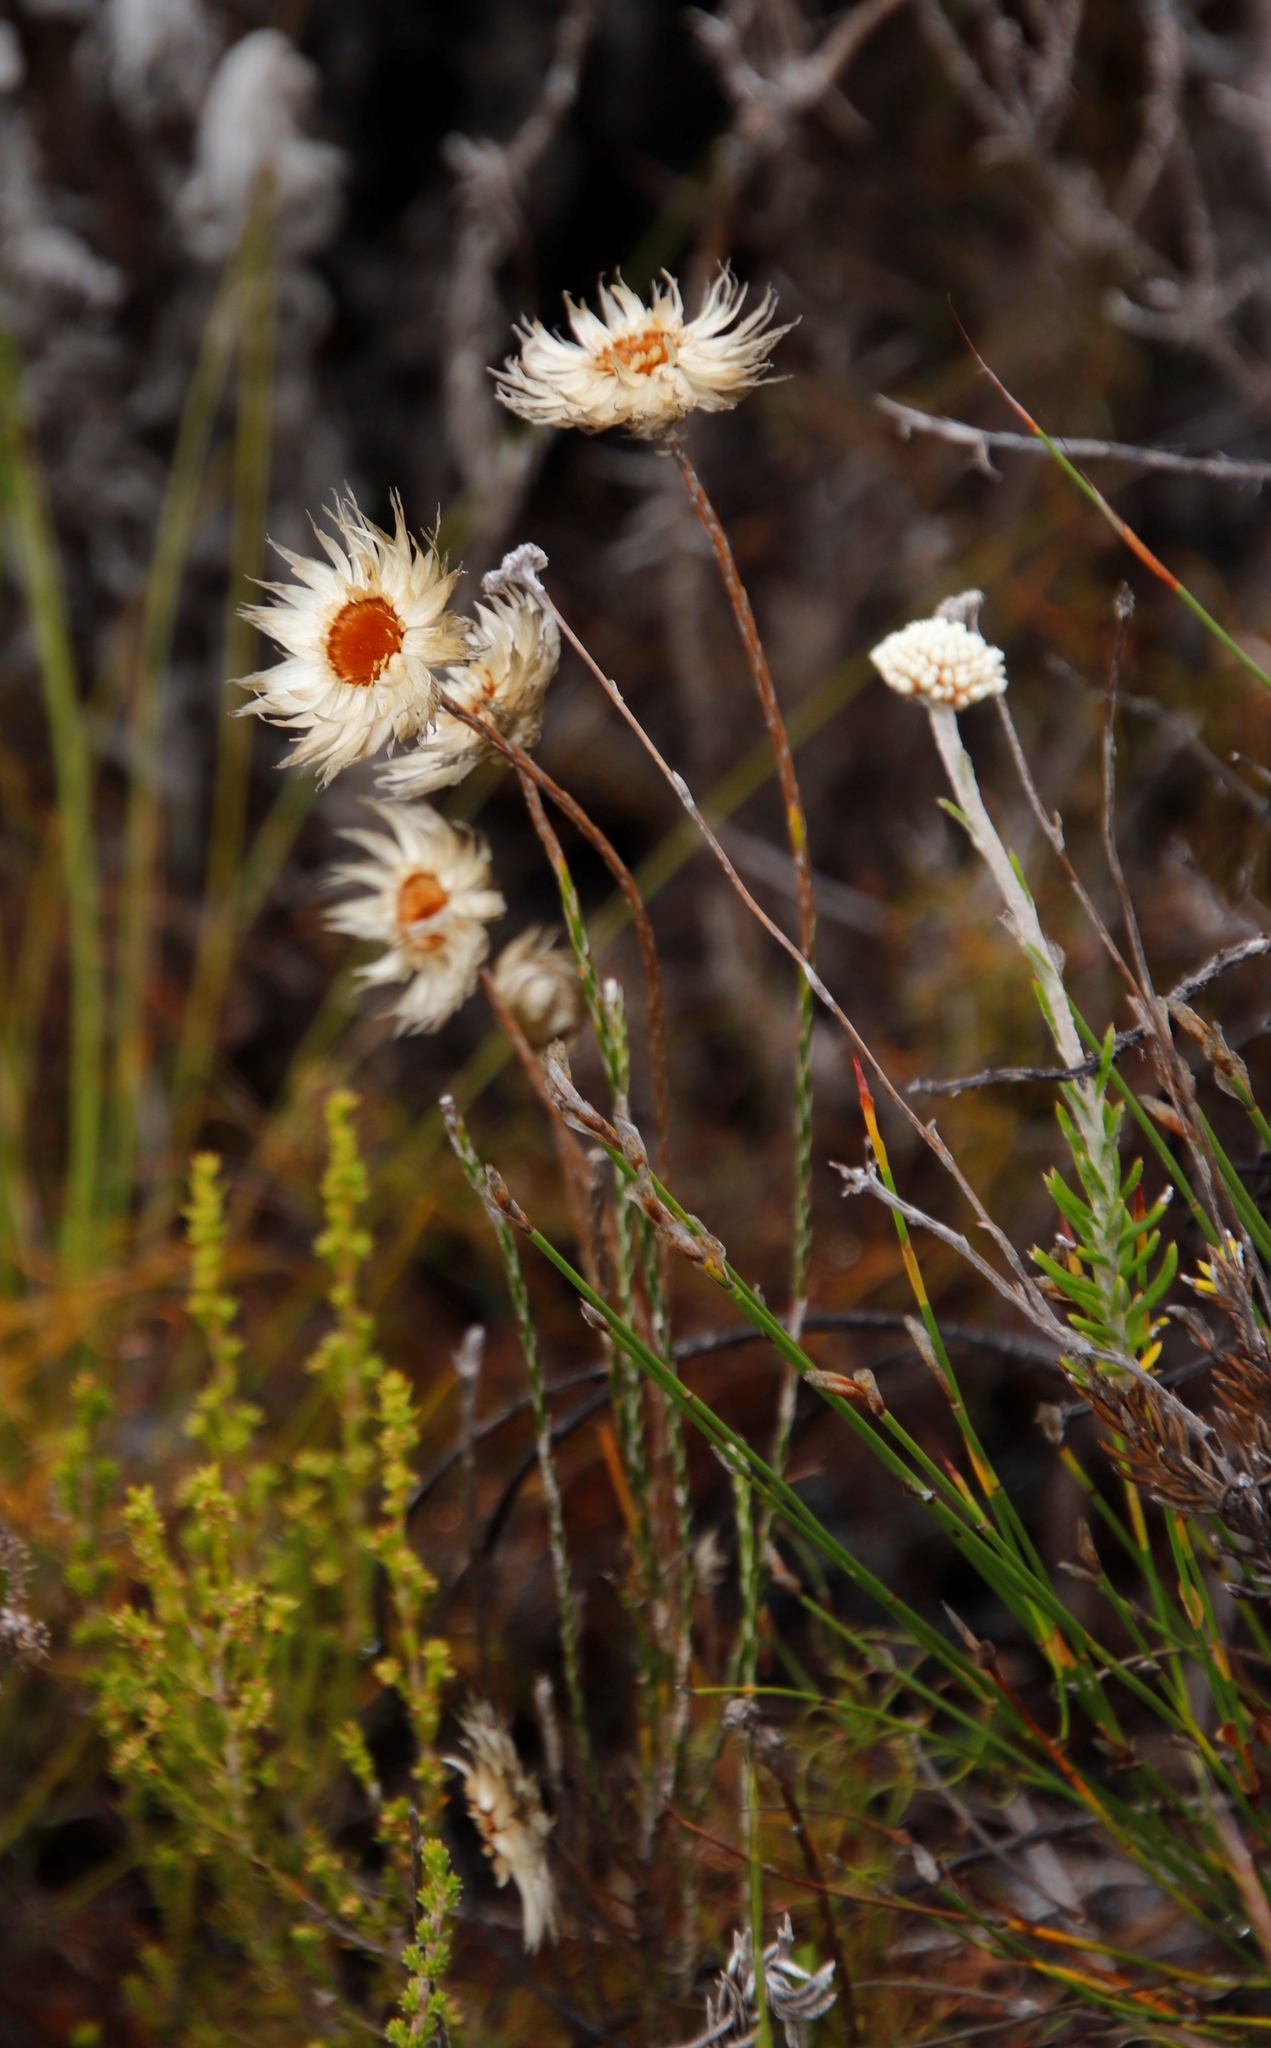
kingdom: Plantae
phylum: Tracheophyta
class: Magnoliopsida
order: Asterales
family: Asteraceae
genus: Edmondia
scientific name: Edmondia sesamoides
